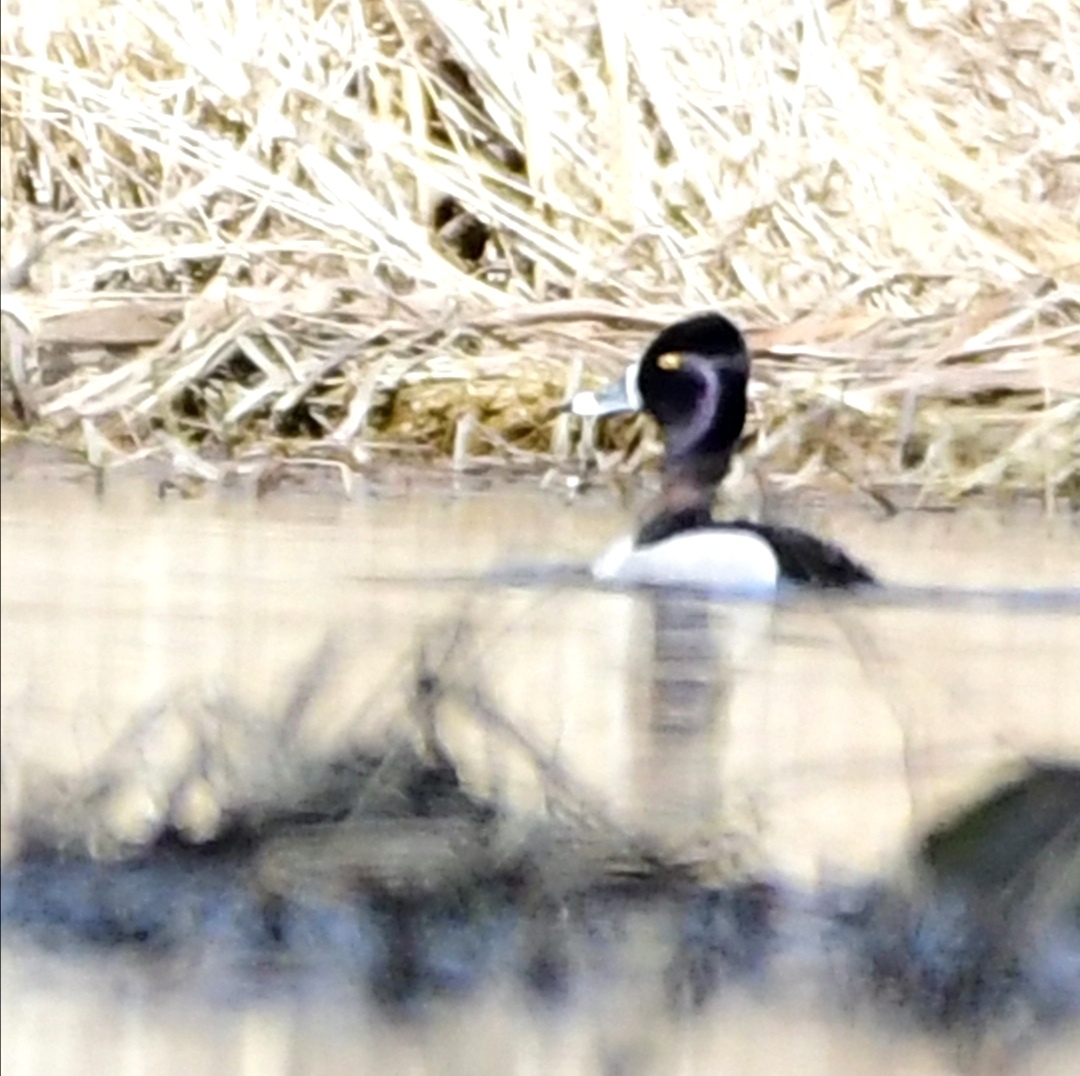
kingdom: Animalia
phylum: Chordata
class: Aves
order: Anseriformes
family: Anatidae
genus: Aythya
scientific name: Aythya collaris
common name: Ring-necked duck
